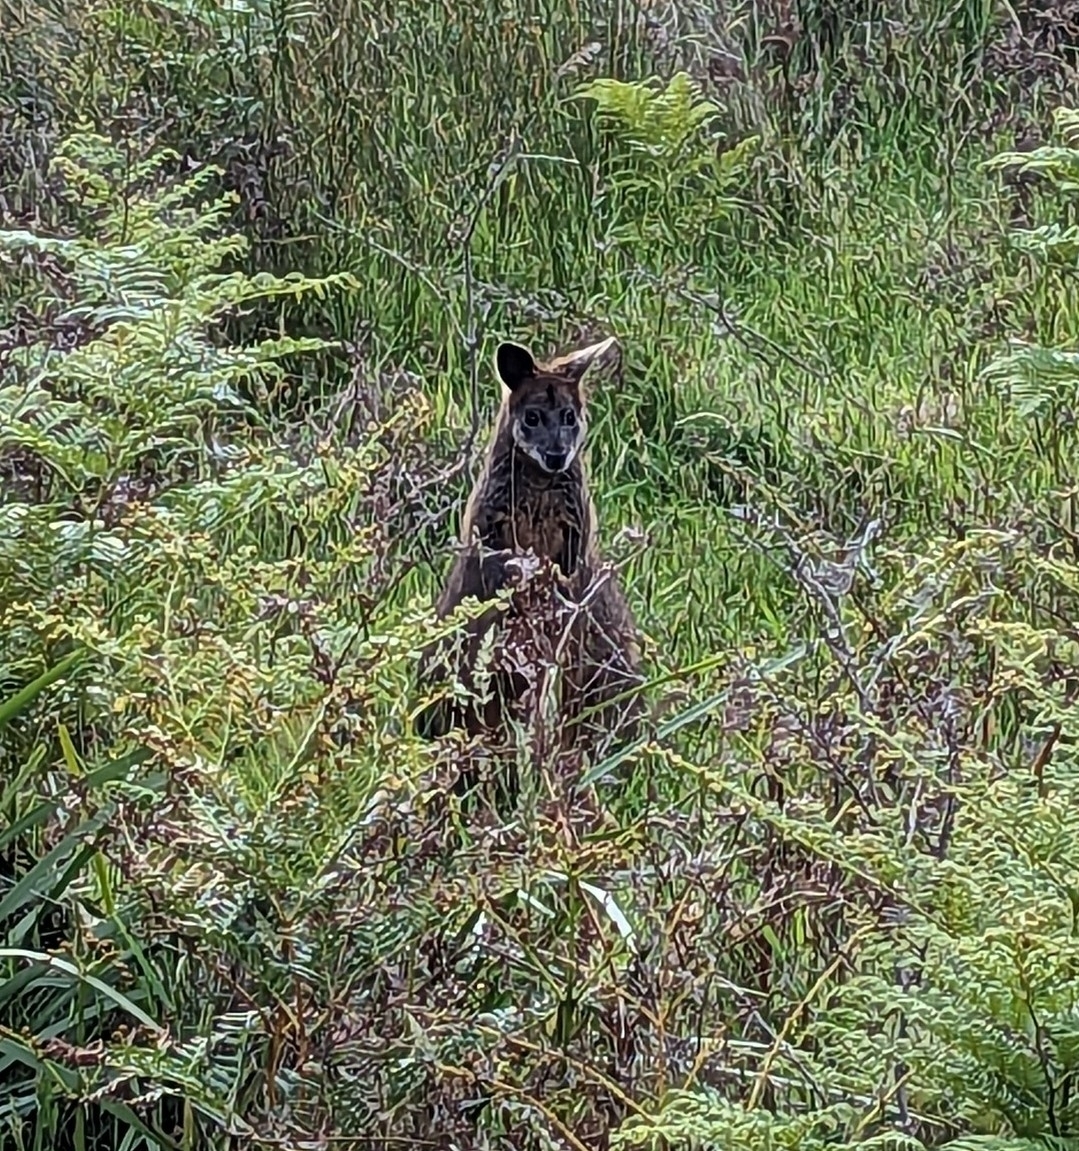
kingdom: Animalia
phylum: Chordata
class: Mammalia
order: Diprotodontia
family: Macropodidae
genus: Wallabia
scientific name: Wallabia bicolor
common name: Swamp wallaby
